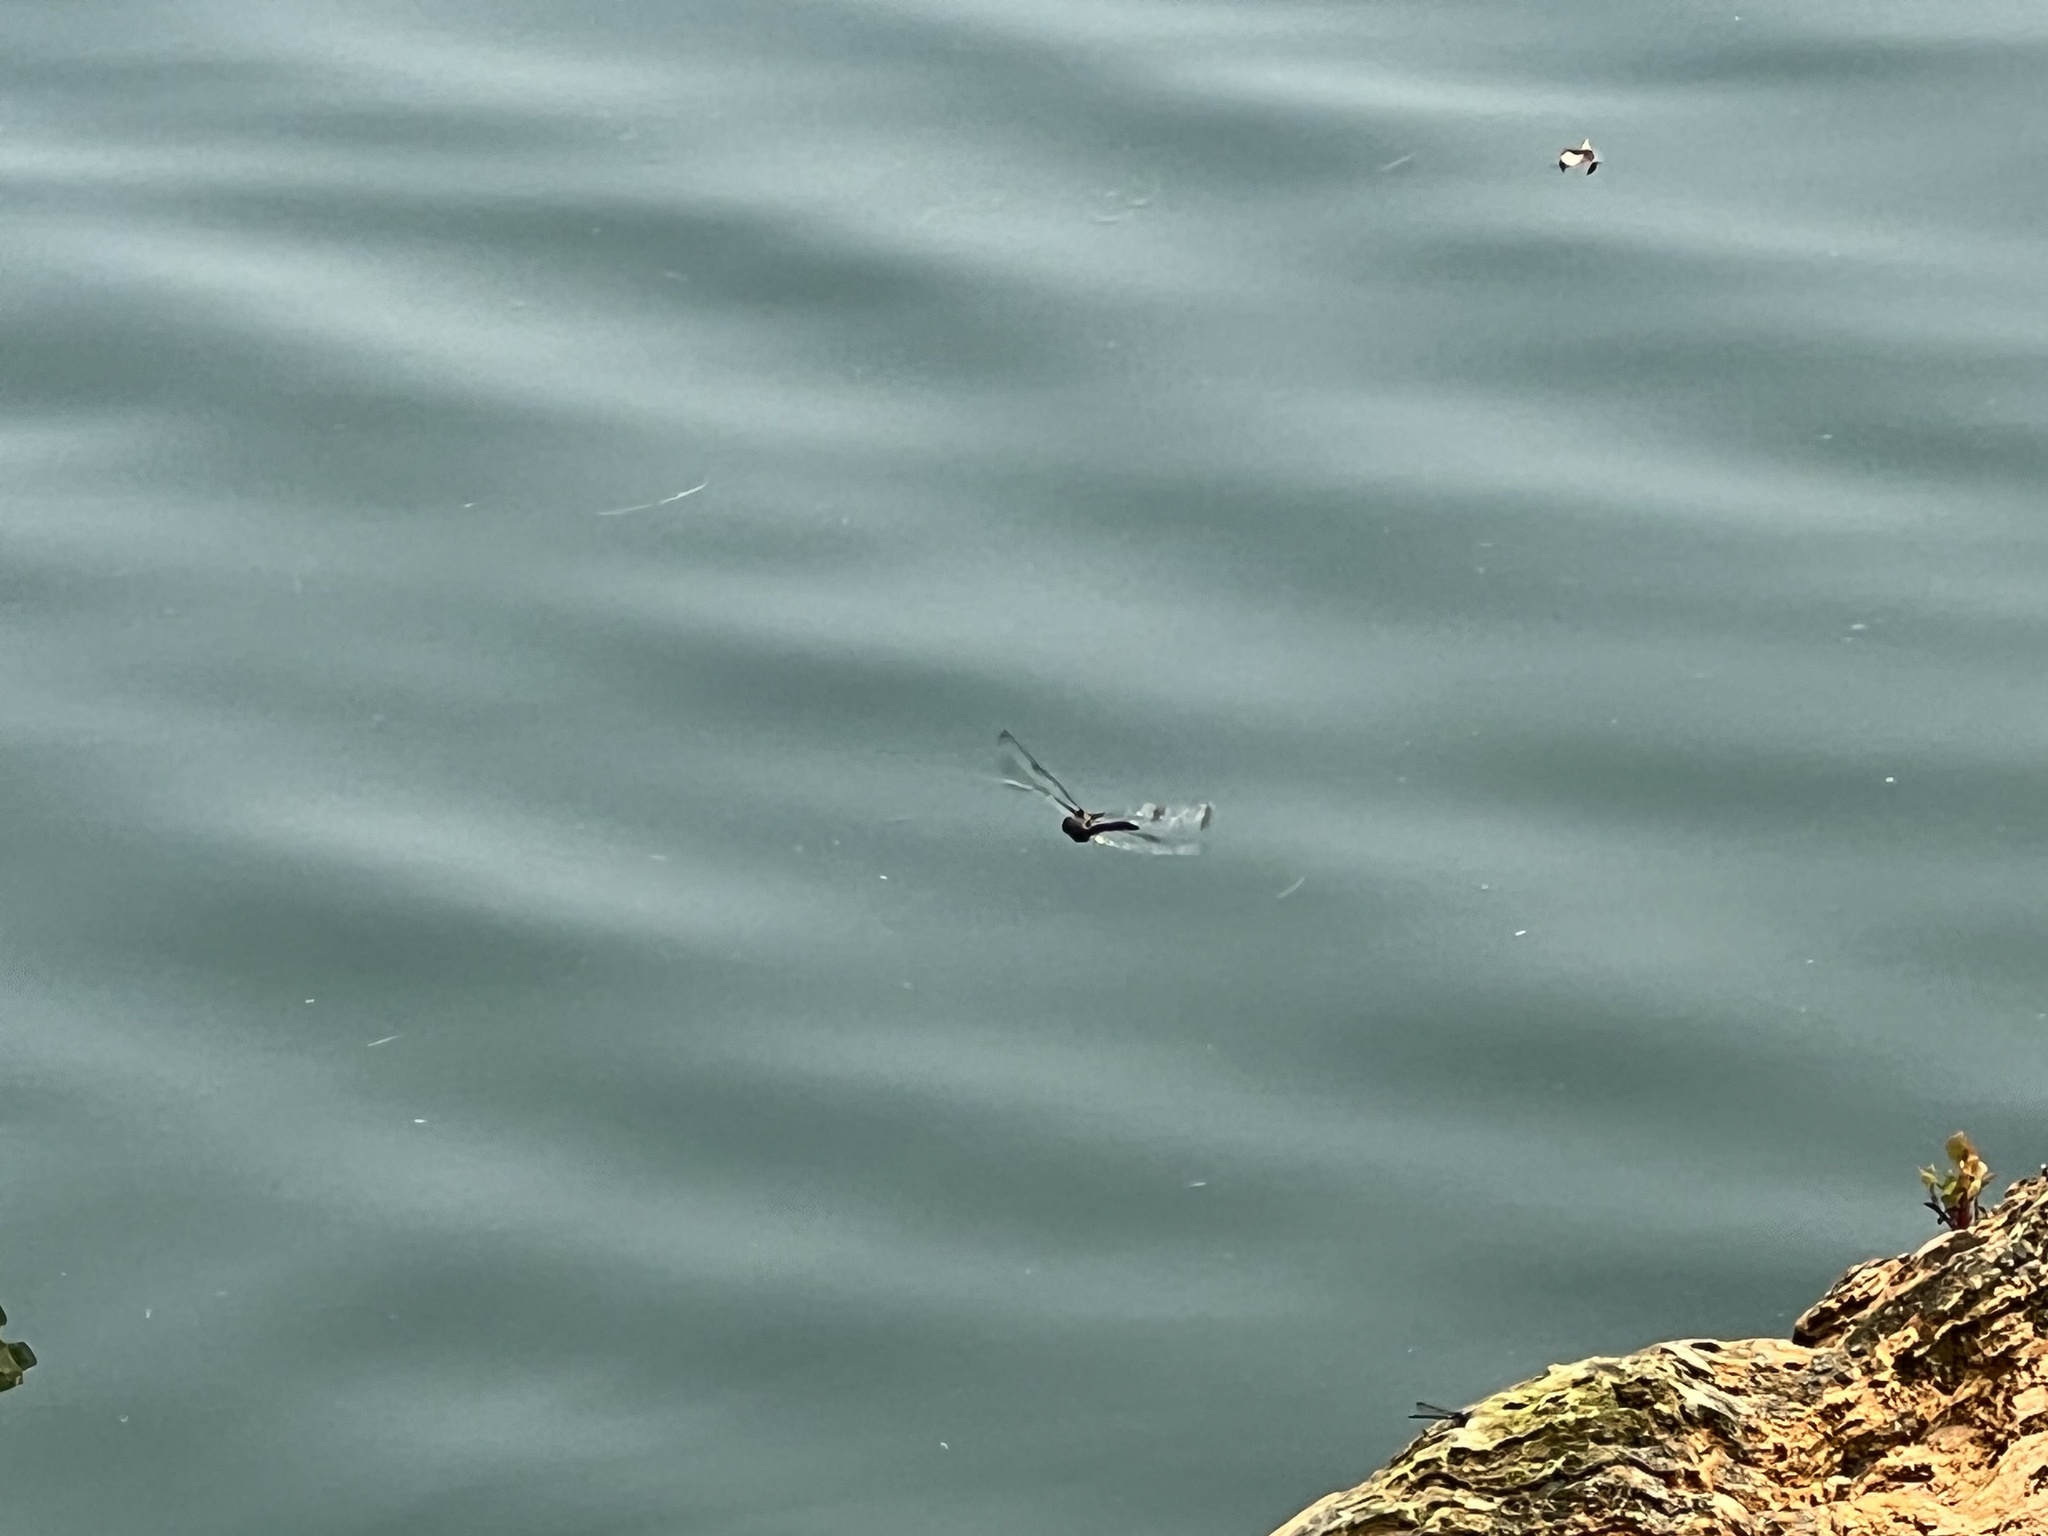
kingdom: Animalia
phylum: Arthropoda
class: Insecta
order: Odonata
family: Corduliidae
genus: Epitheca
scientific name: Epitheca princeps
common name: Prince baskettail
